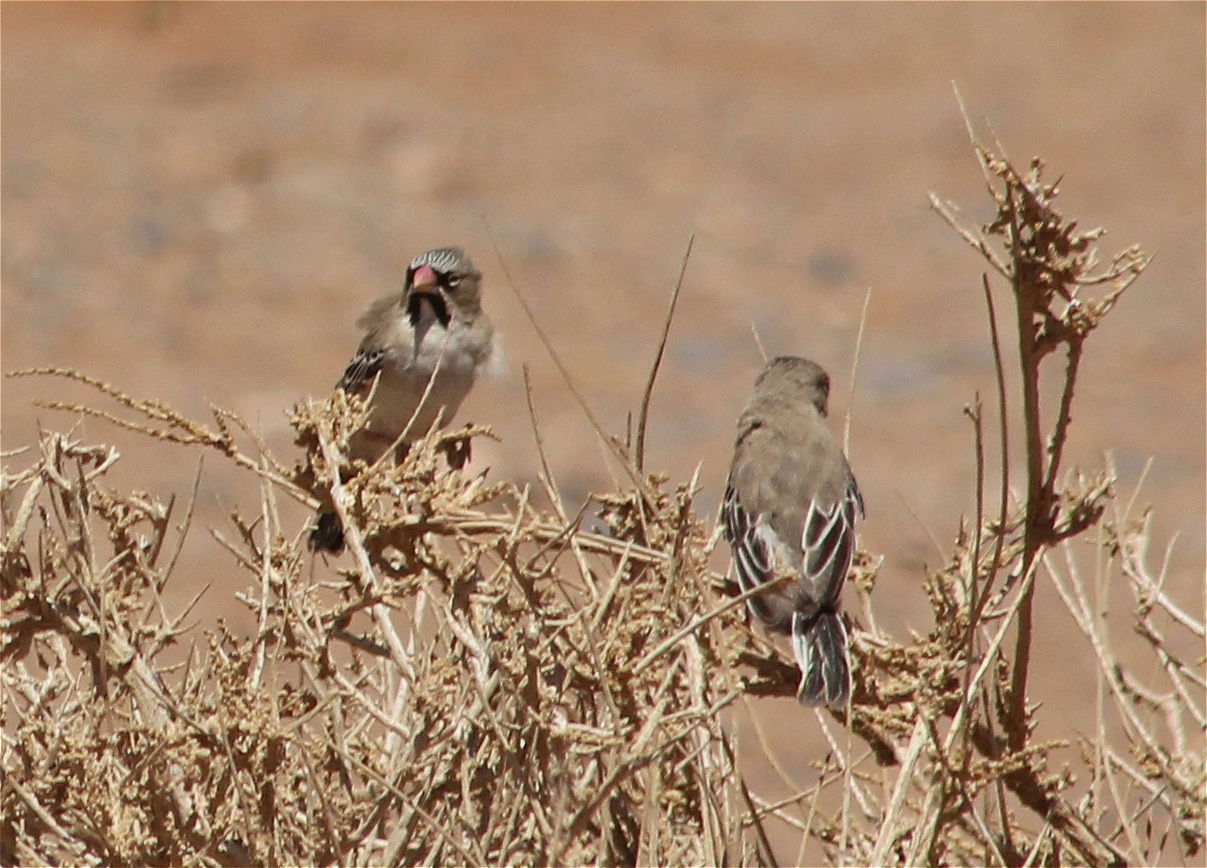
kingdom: Animalia
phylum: Chordata
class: Aves
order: Passeriformes
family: Ploceidae
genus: Sporopipes
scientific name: Sporopipes squamifrons
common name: Scaly-feathered weaver
